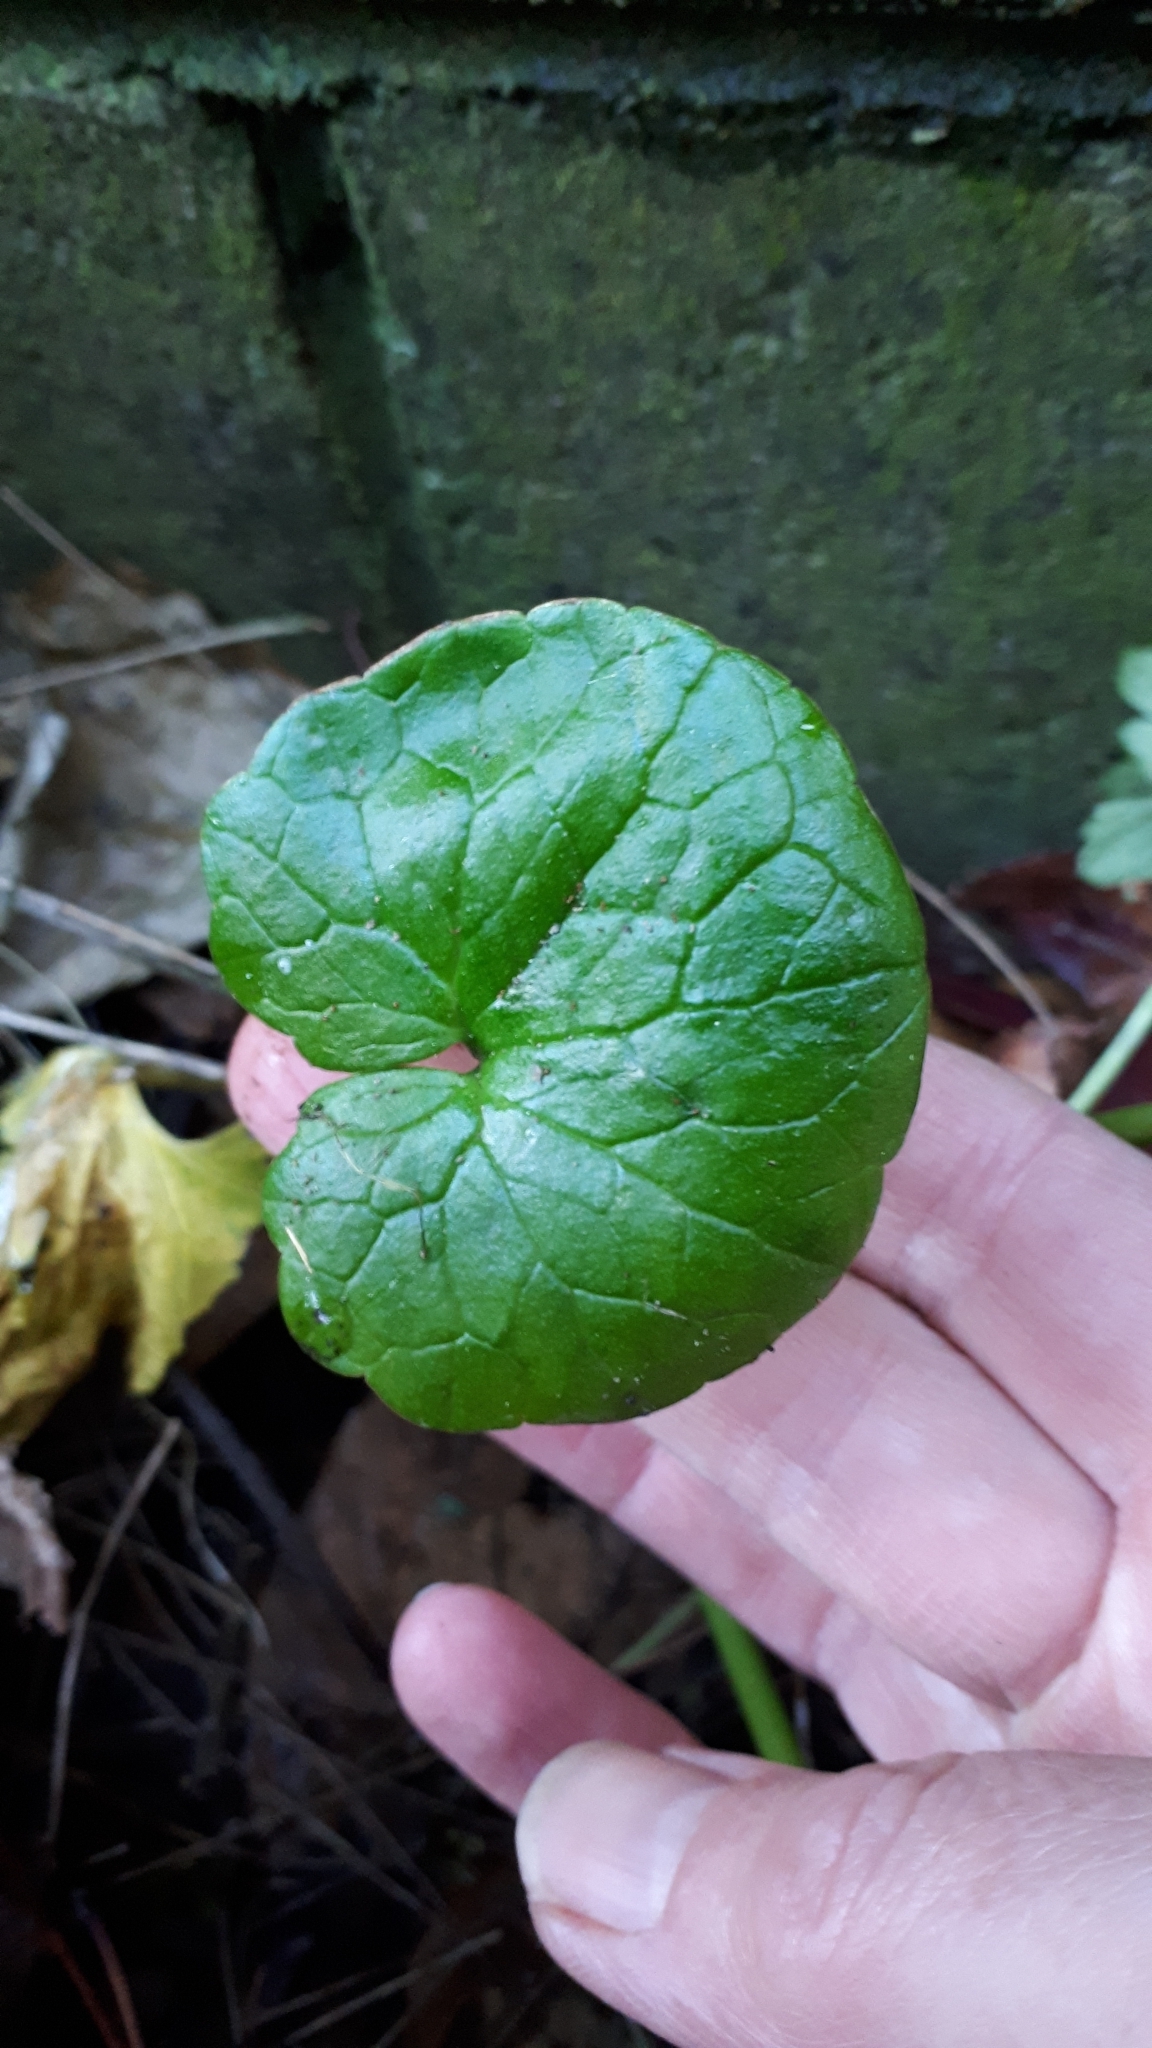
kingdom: Plantae
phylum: Tracheophyta
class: Magnoliopsida
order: Ranunculales
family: Ranunculaceae
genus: Ficaria
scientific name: Ficaria verna
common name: Lesser celandine
